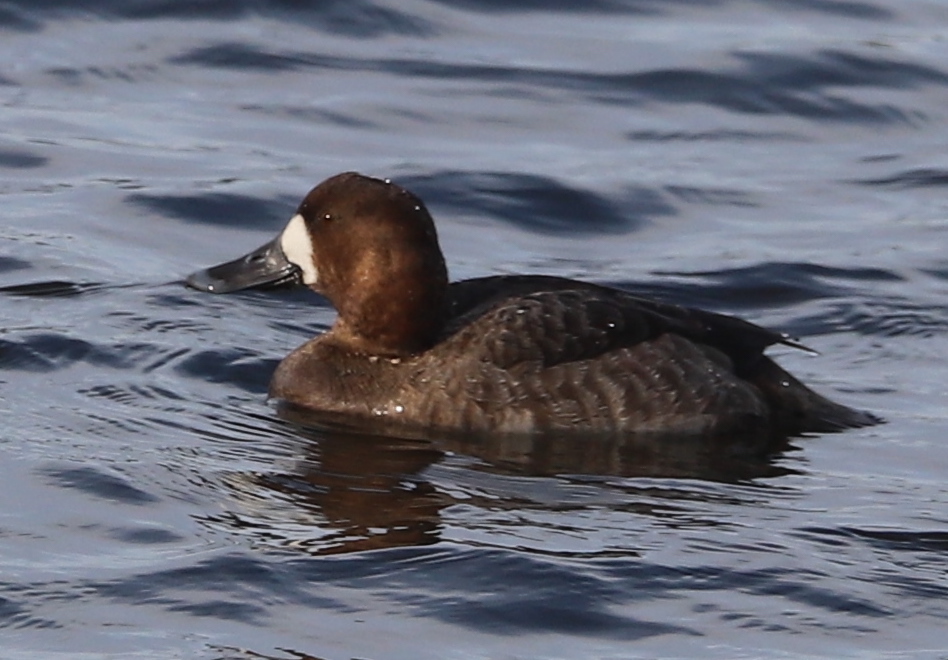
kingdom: Animalia
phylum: Chordata
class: Aves
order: Anseriformes
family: Anatidae
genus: Aythya
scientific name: Aythya marila
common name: Greater scaup
